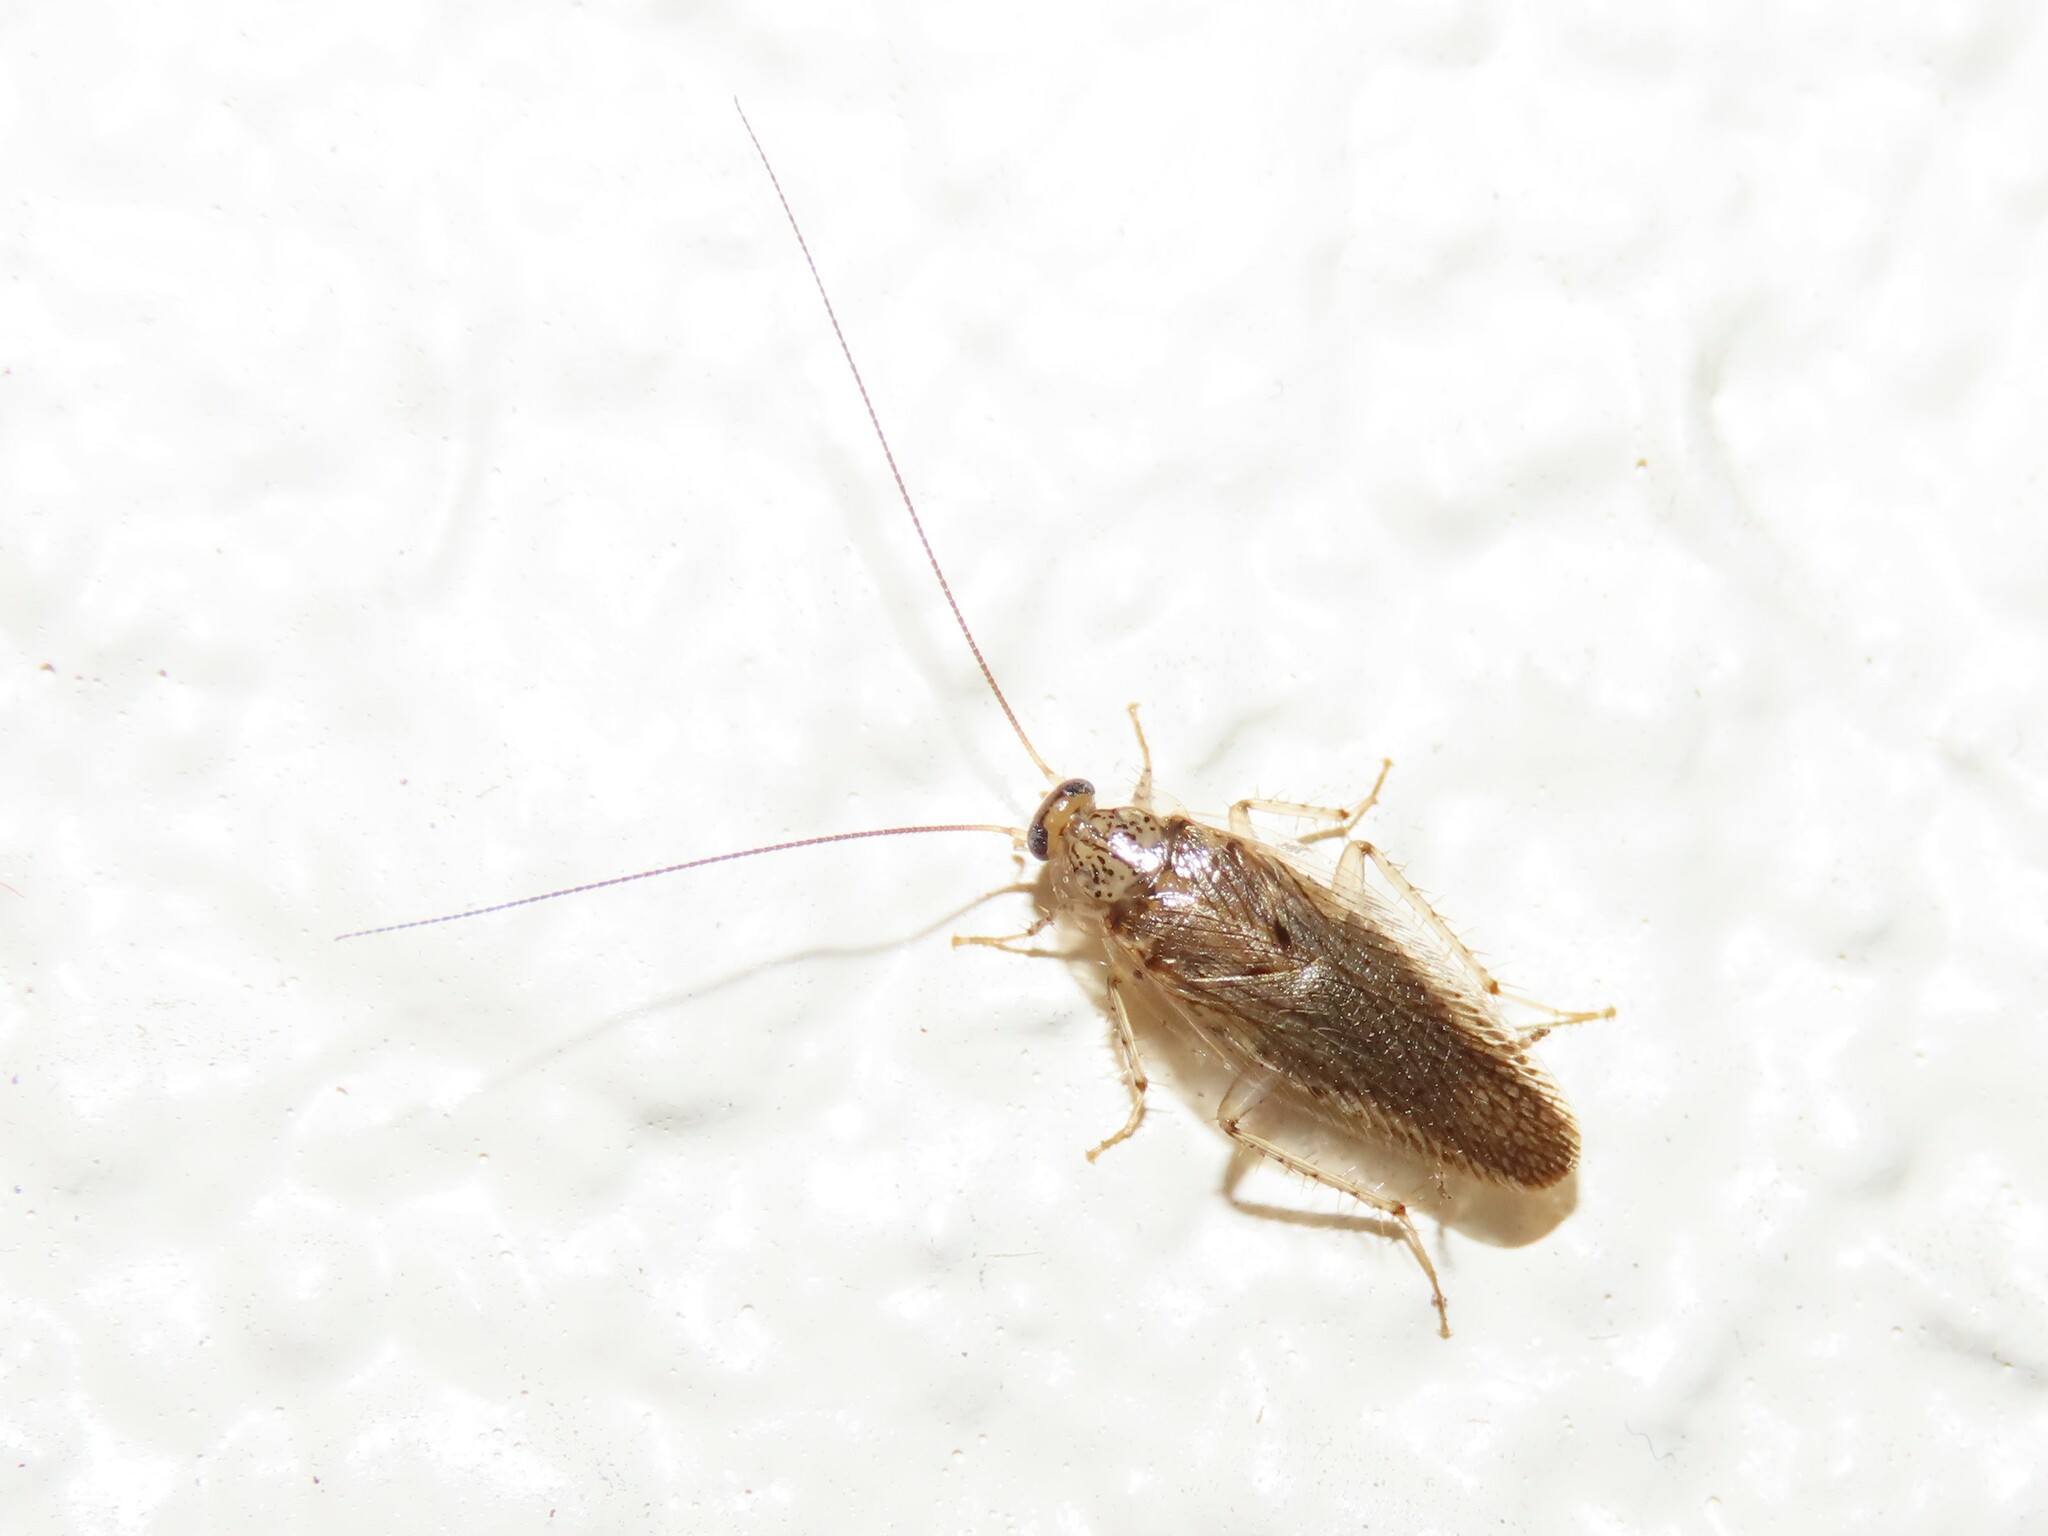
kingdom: Animalia
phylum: Arthropoda
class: Insecta
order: Blattodea
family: Ectobiidae
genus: Neoblattella
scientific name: Neoblattella detersa
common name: Wood cockroach
